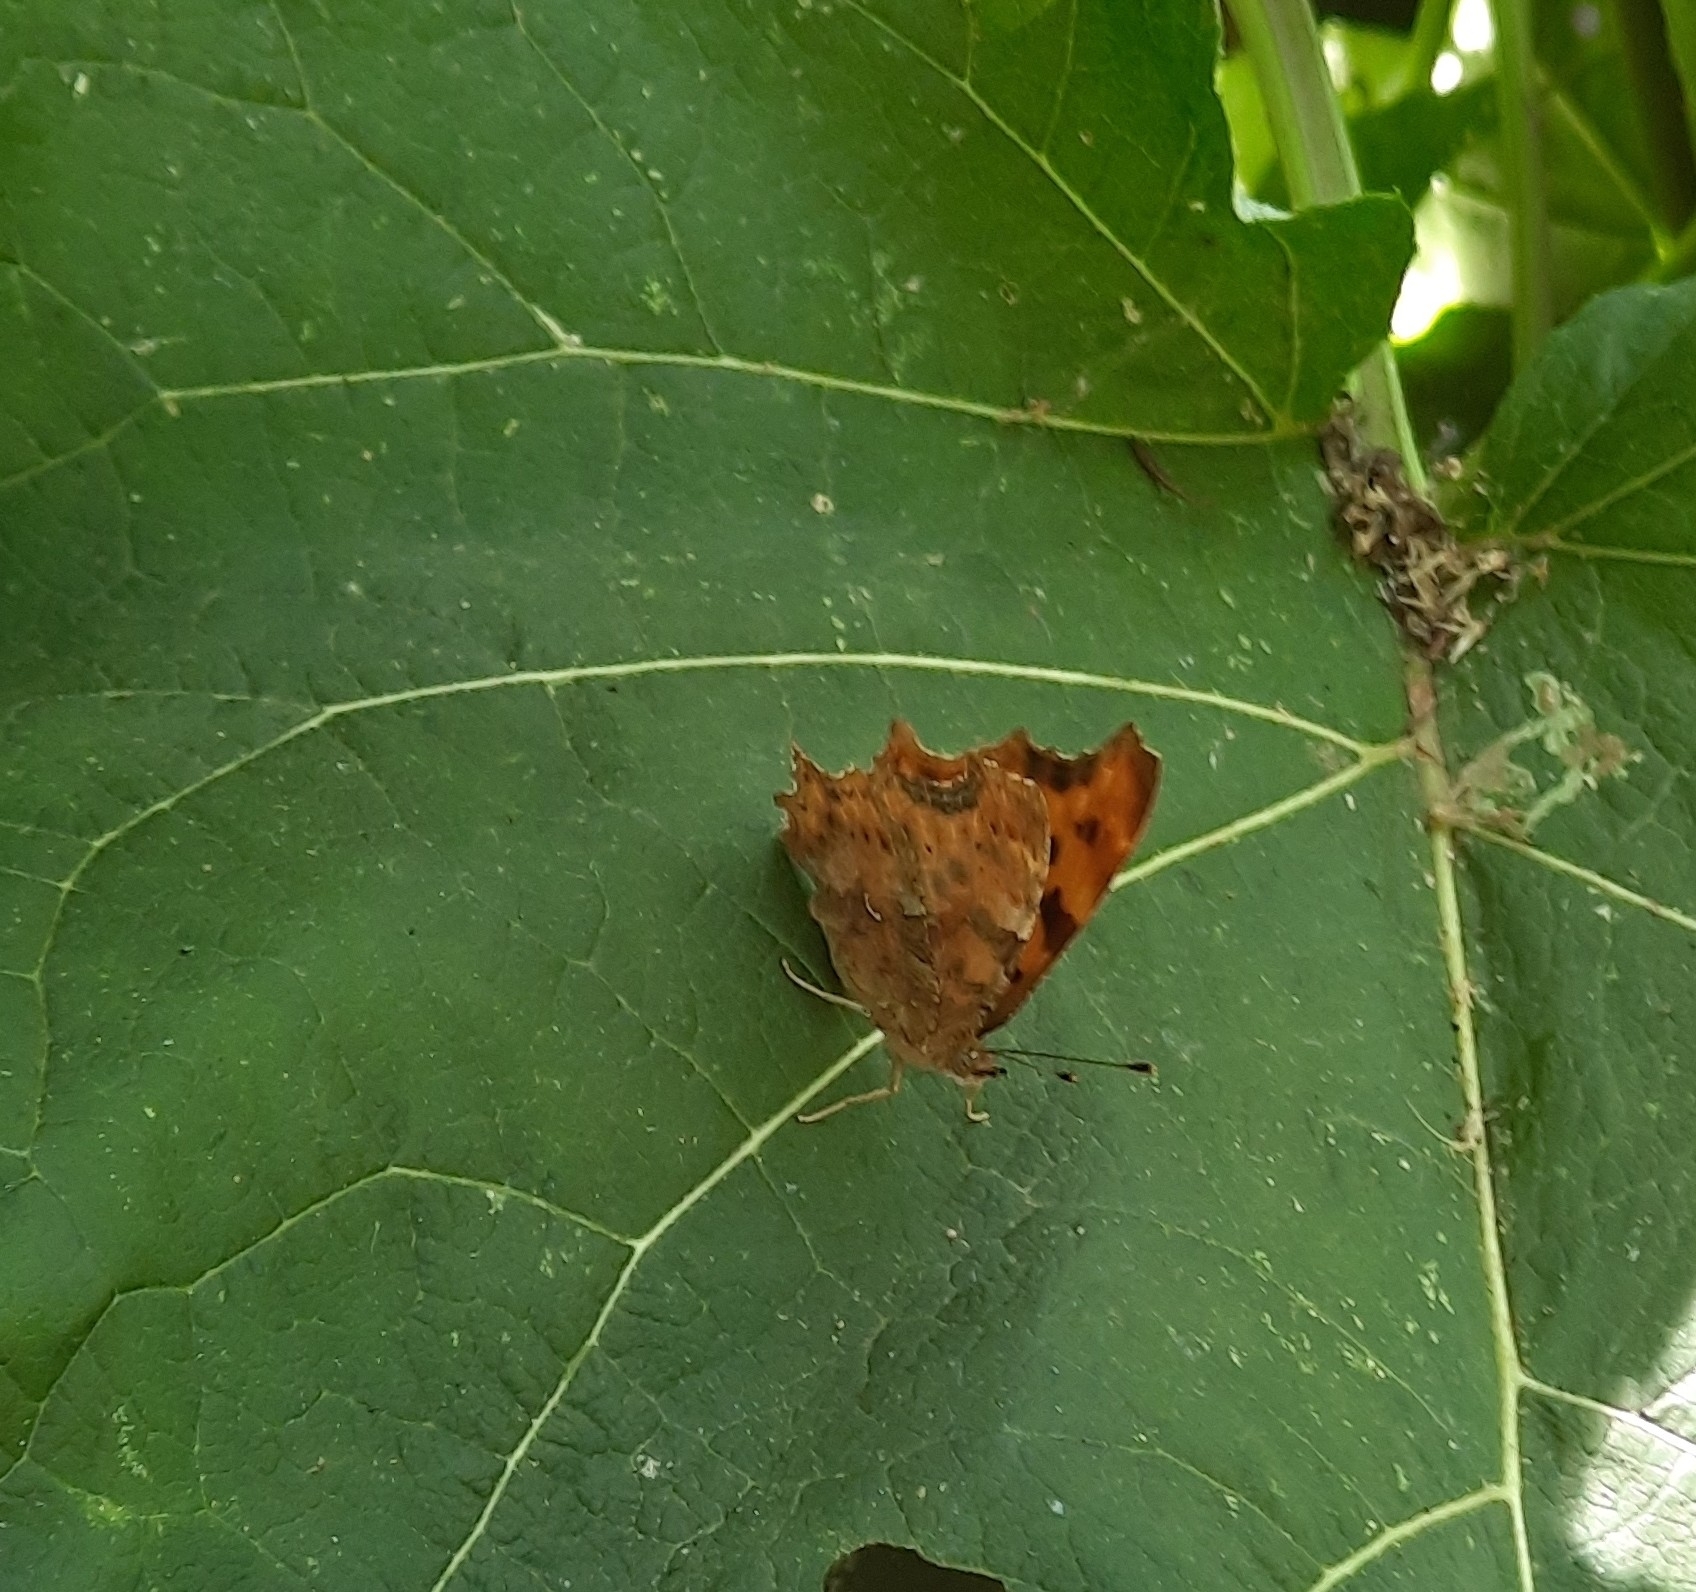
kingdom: Animalia
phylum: Arthropoda
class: Insecta
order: Lepidoptera
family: Nymphalidae
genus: Polygonia
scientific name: Polygonia c-album
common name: Comma
